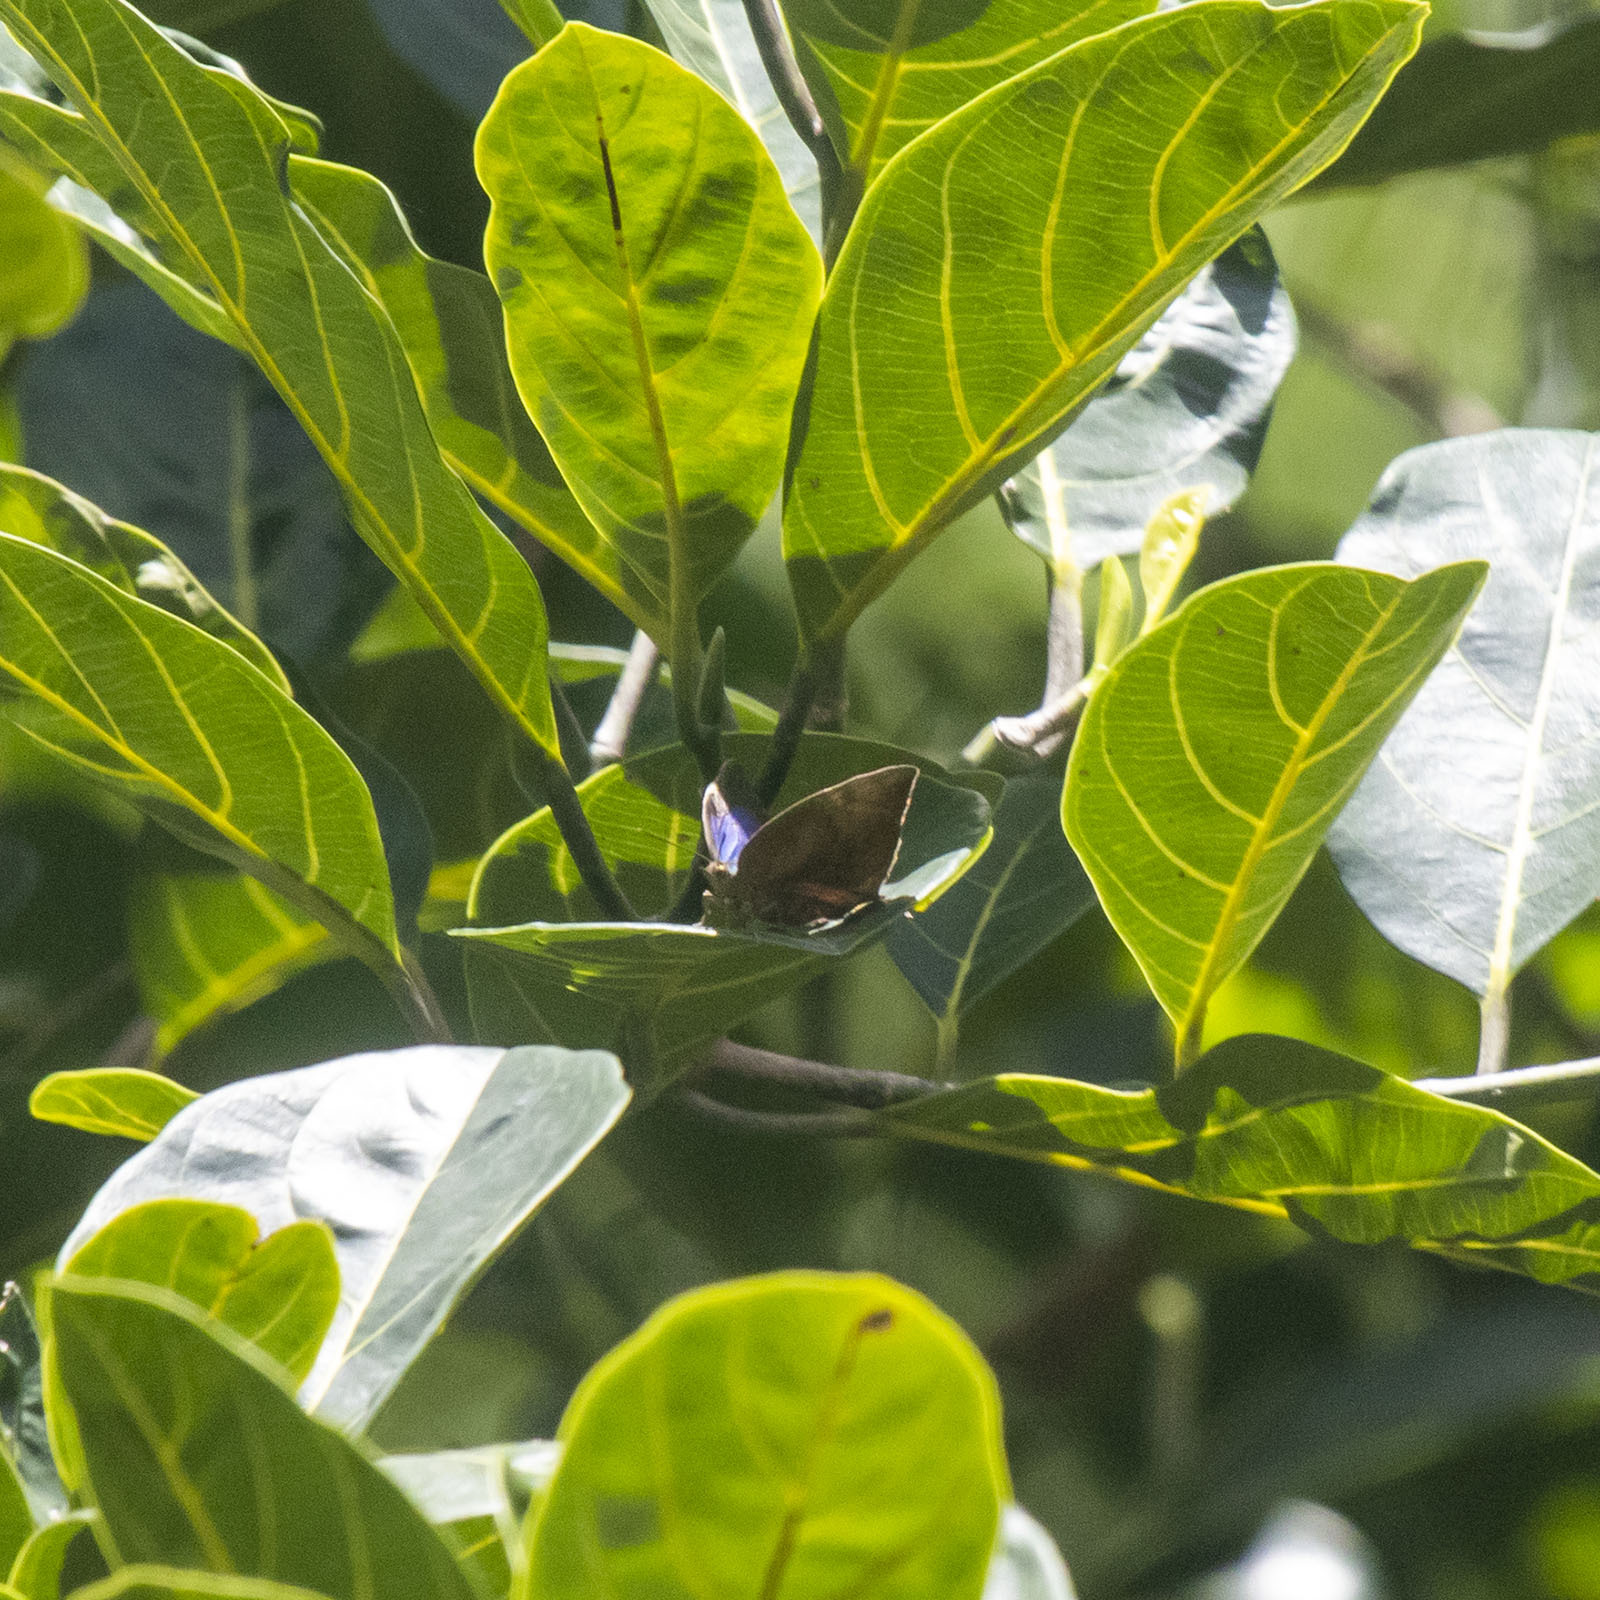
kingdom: Animalia
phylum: Arthropoda
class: Insecta
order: Lepidoptera
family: Lycaenidae
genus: Amblypodia
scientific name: Amblypodia anita
